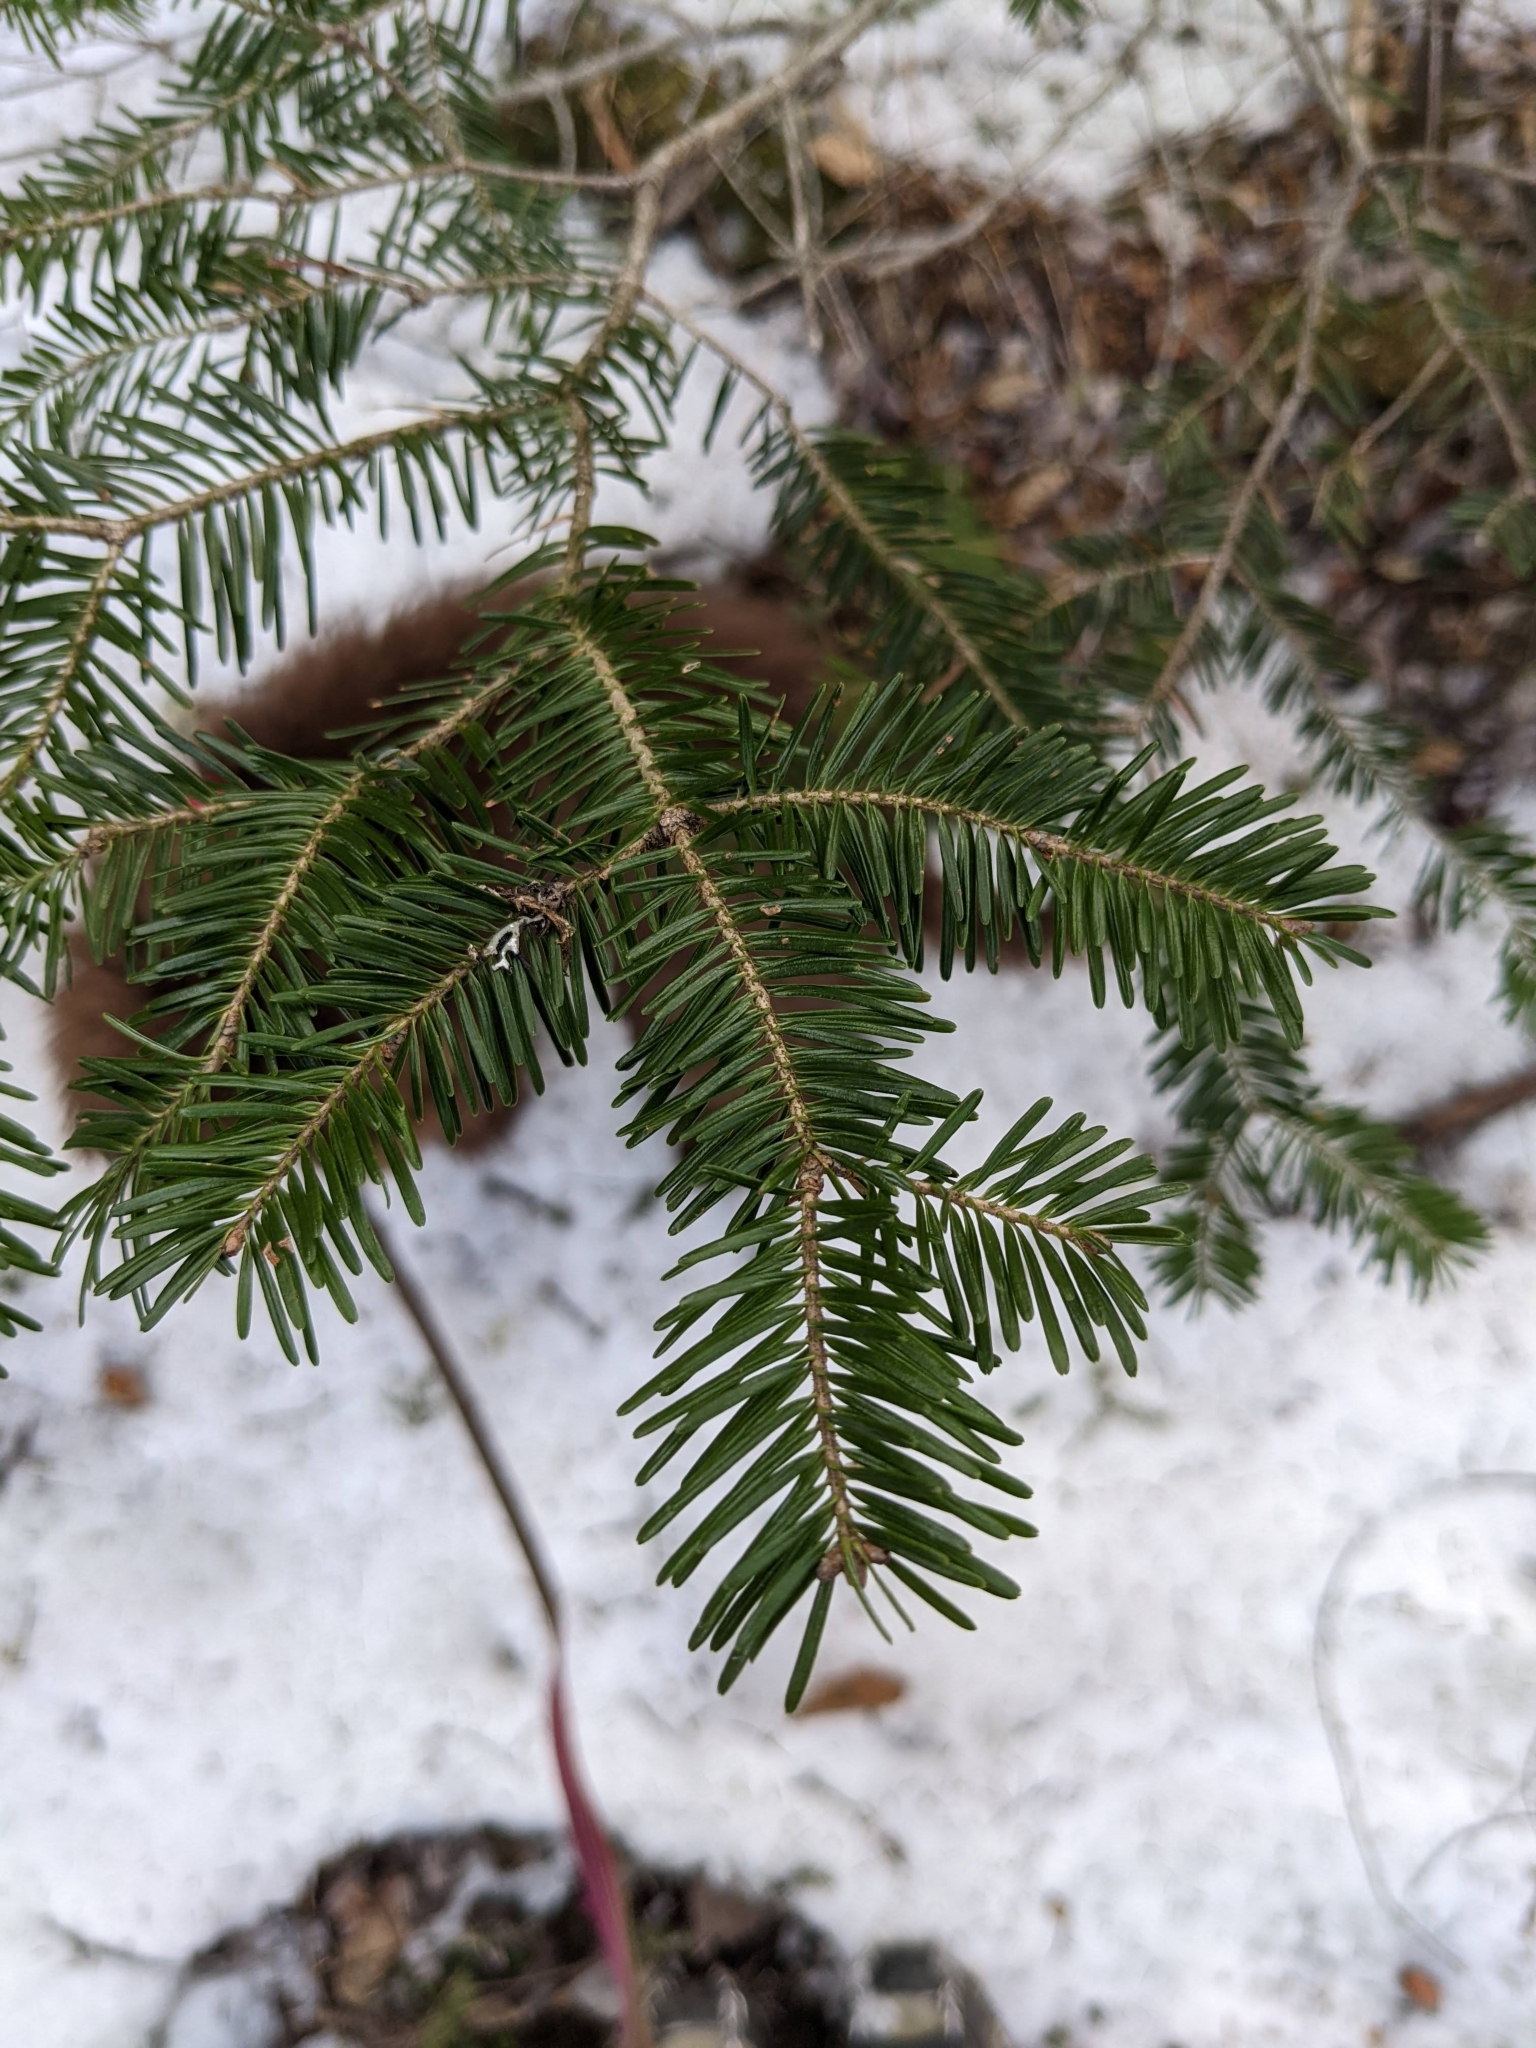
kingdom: Plantae
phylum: Tracheophyta
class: Pinopsida
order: Pinales
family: Pinaceae
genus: Abies
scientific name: Abies balsamea
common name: Balsam fir
